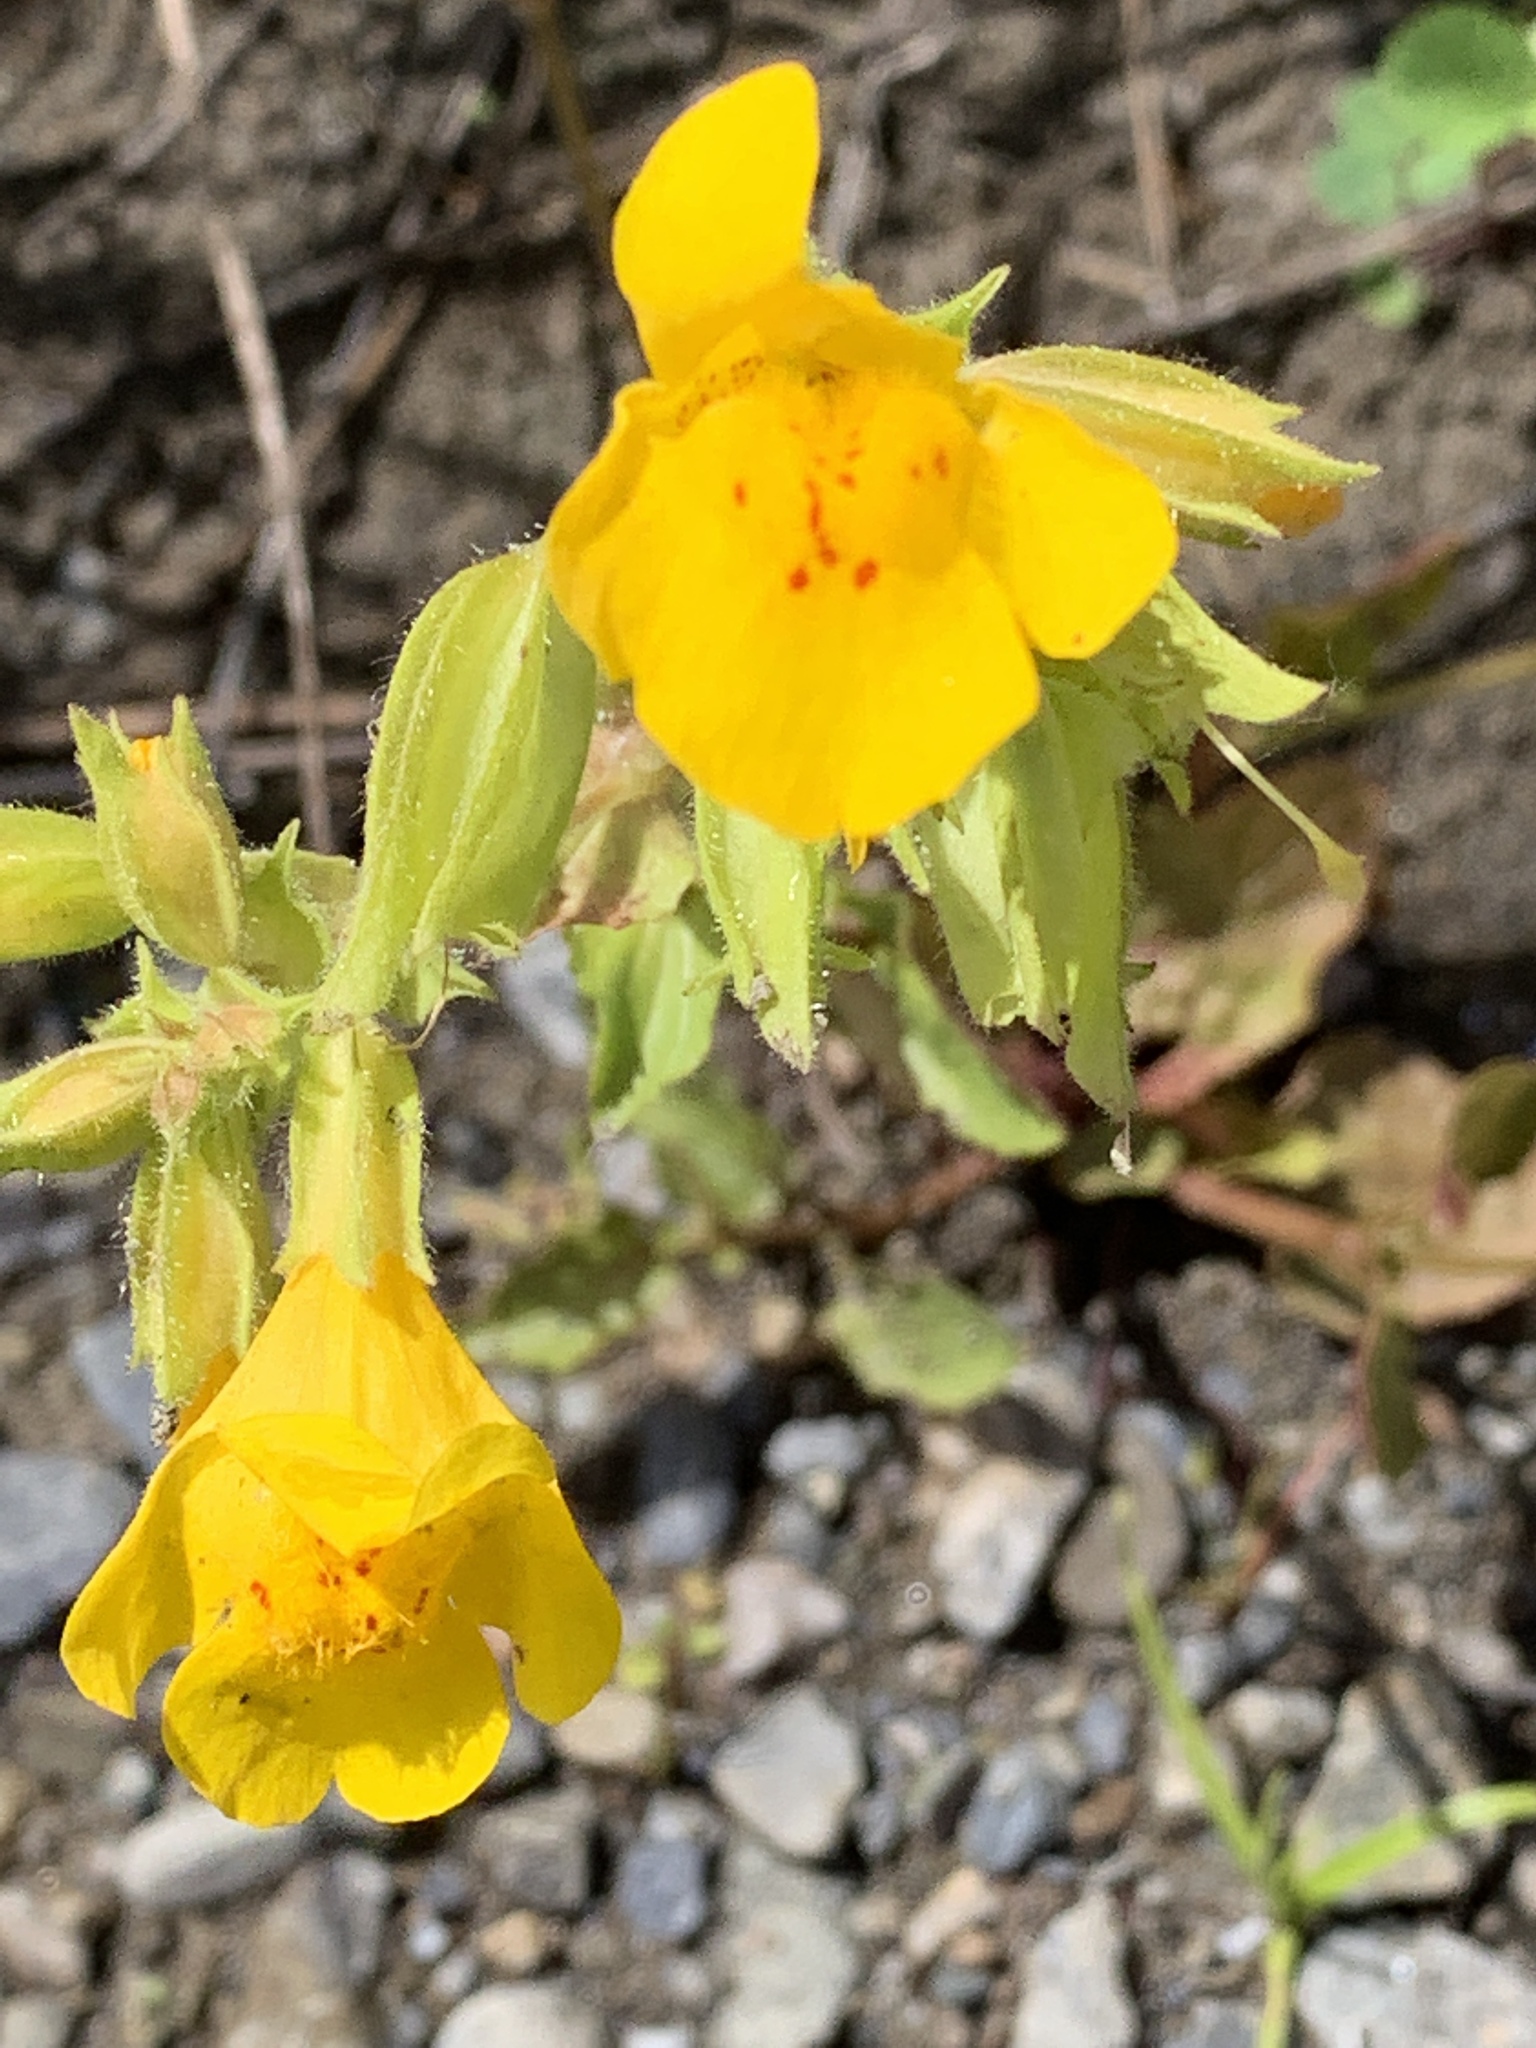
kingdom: Plantae
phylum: Tracheophyta
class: Magnoliopsida
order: Lamiales
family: Phrymaceae
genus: Erythranthe
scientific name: Erythranthe guttata
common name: Monkeyflower
